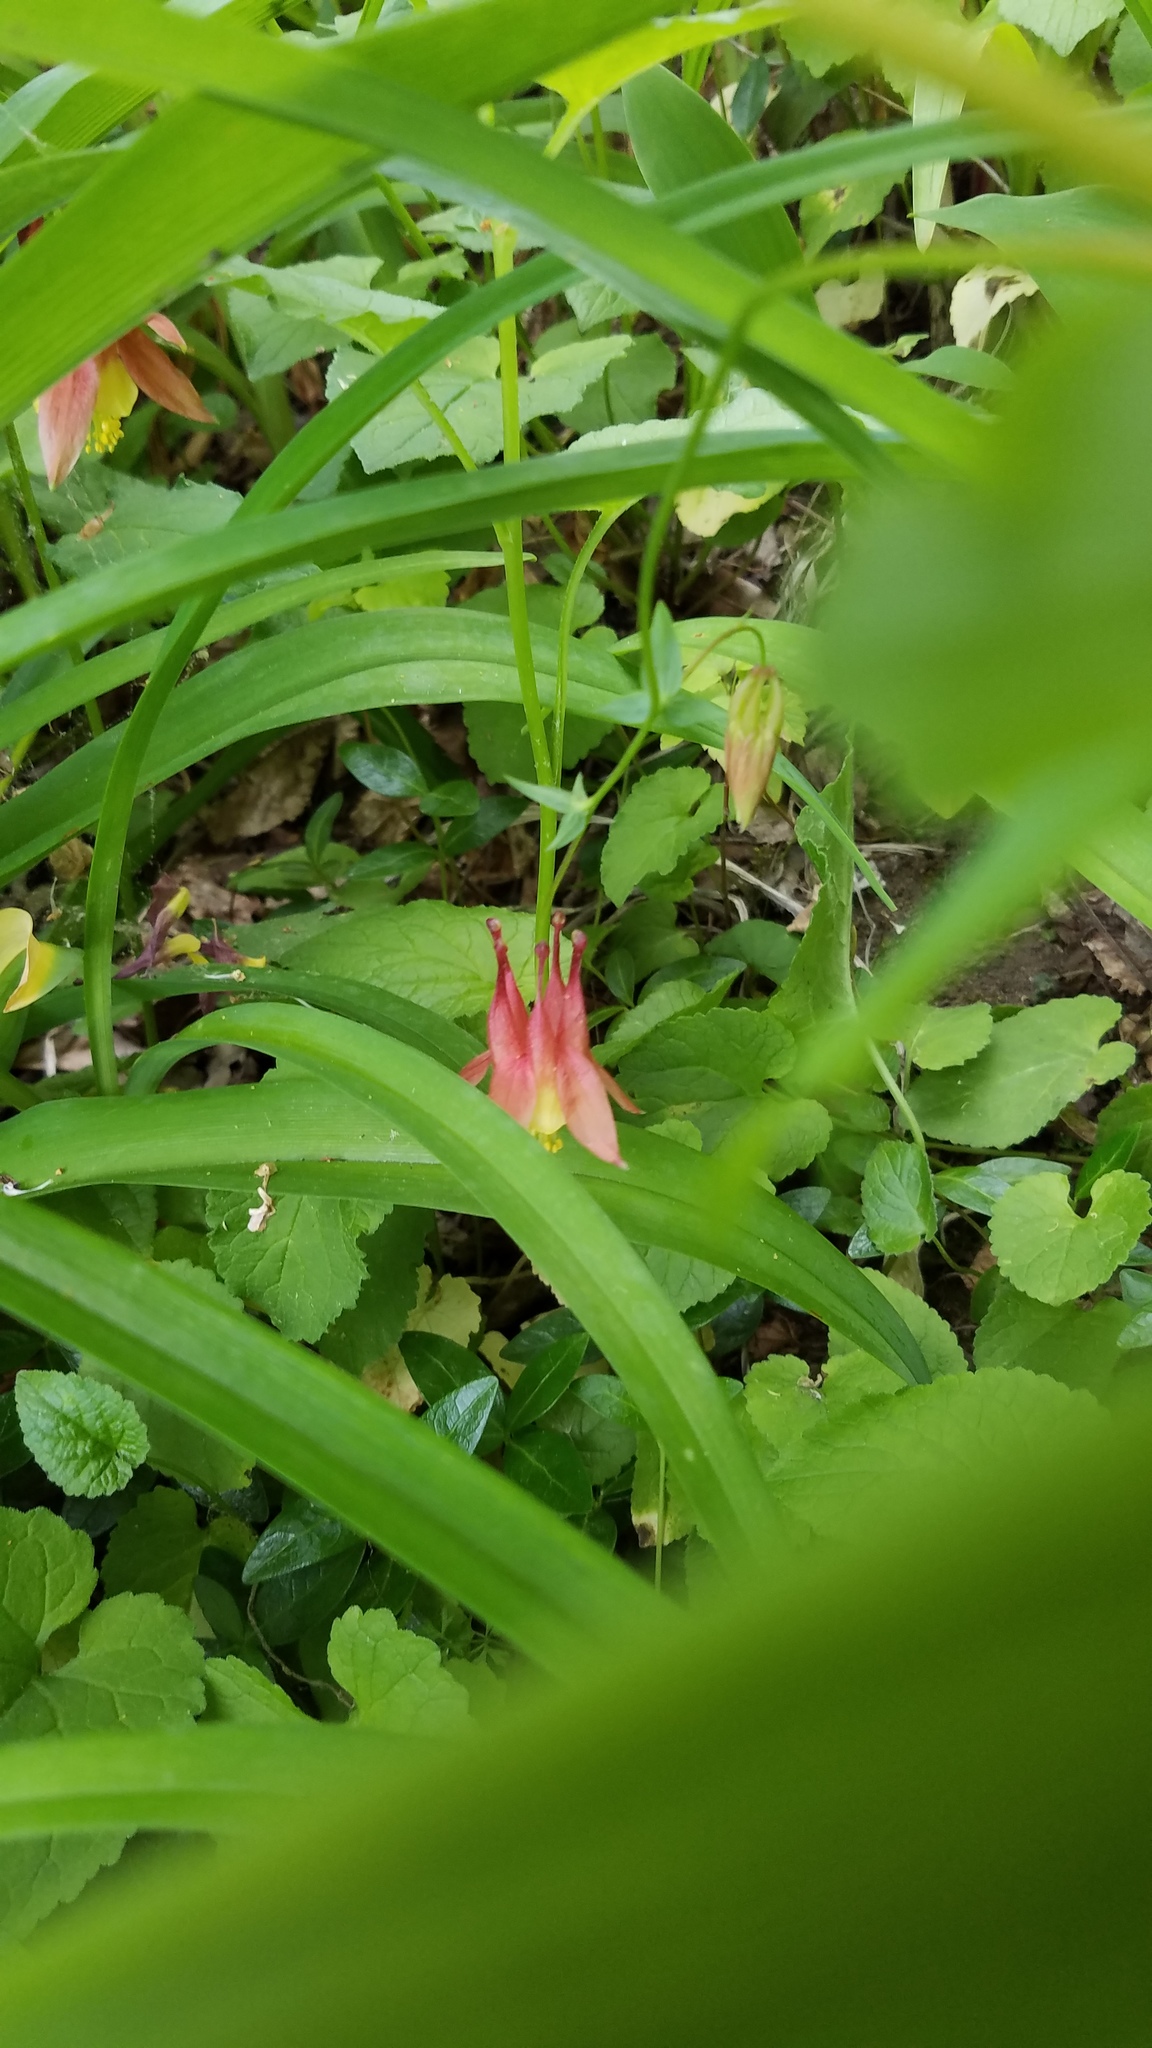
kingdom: Plantae
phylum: Tracheophyta
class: Magnoliopsida
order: Ranunculales
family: Ranunculaceae
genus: Aquilegia
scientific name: Aquilegia canadensis
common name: American columbine
